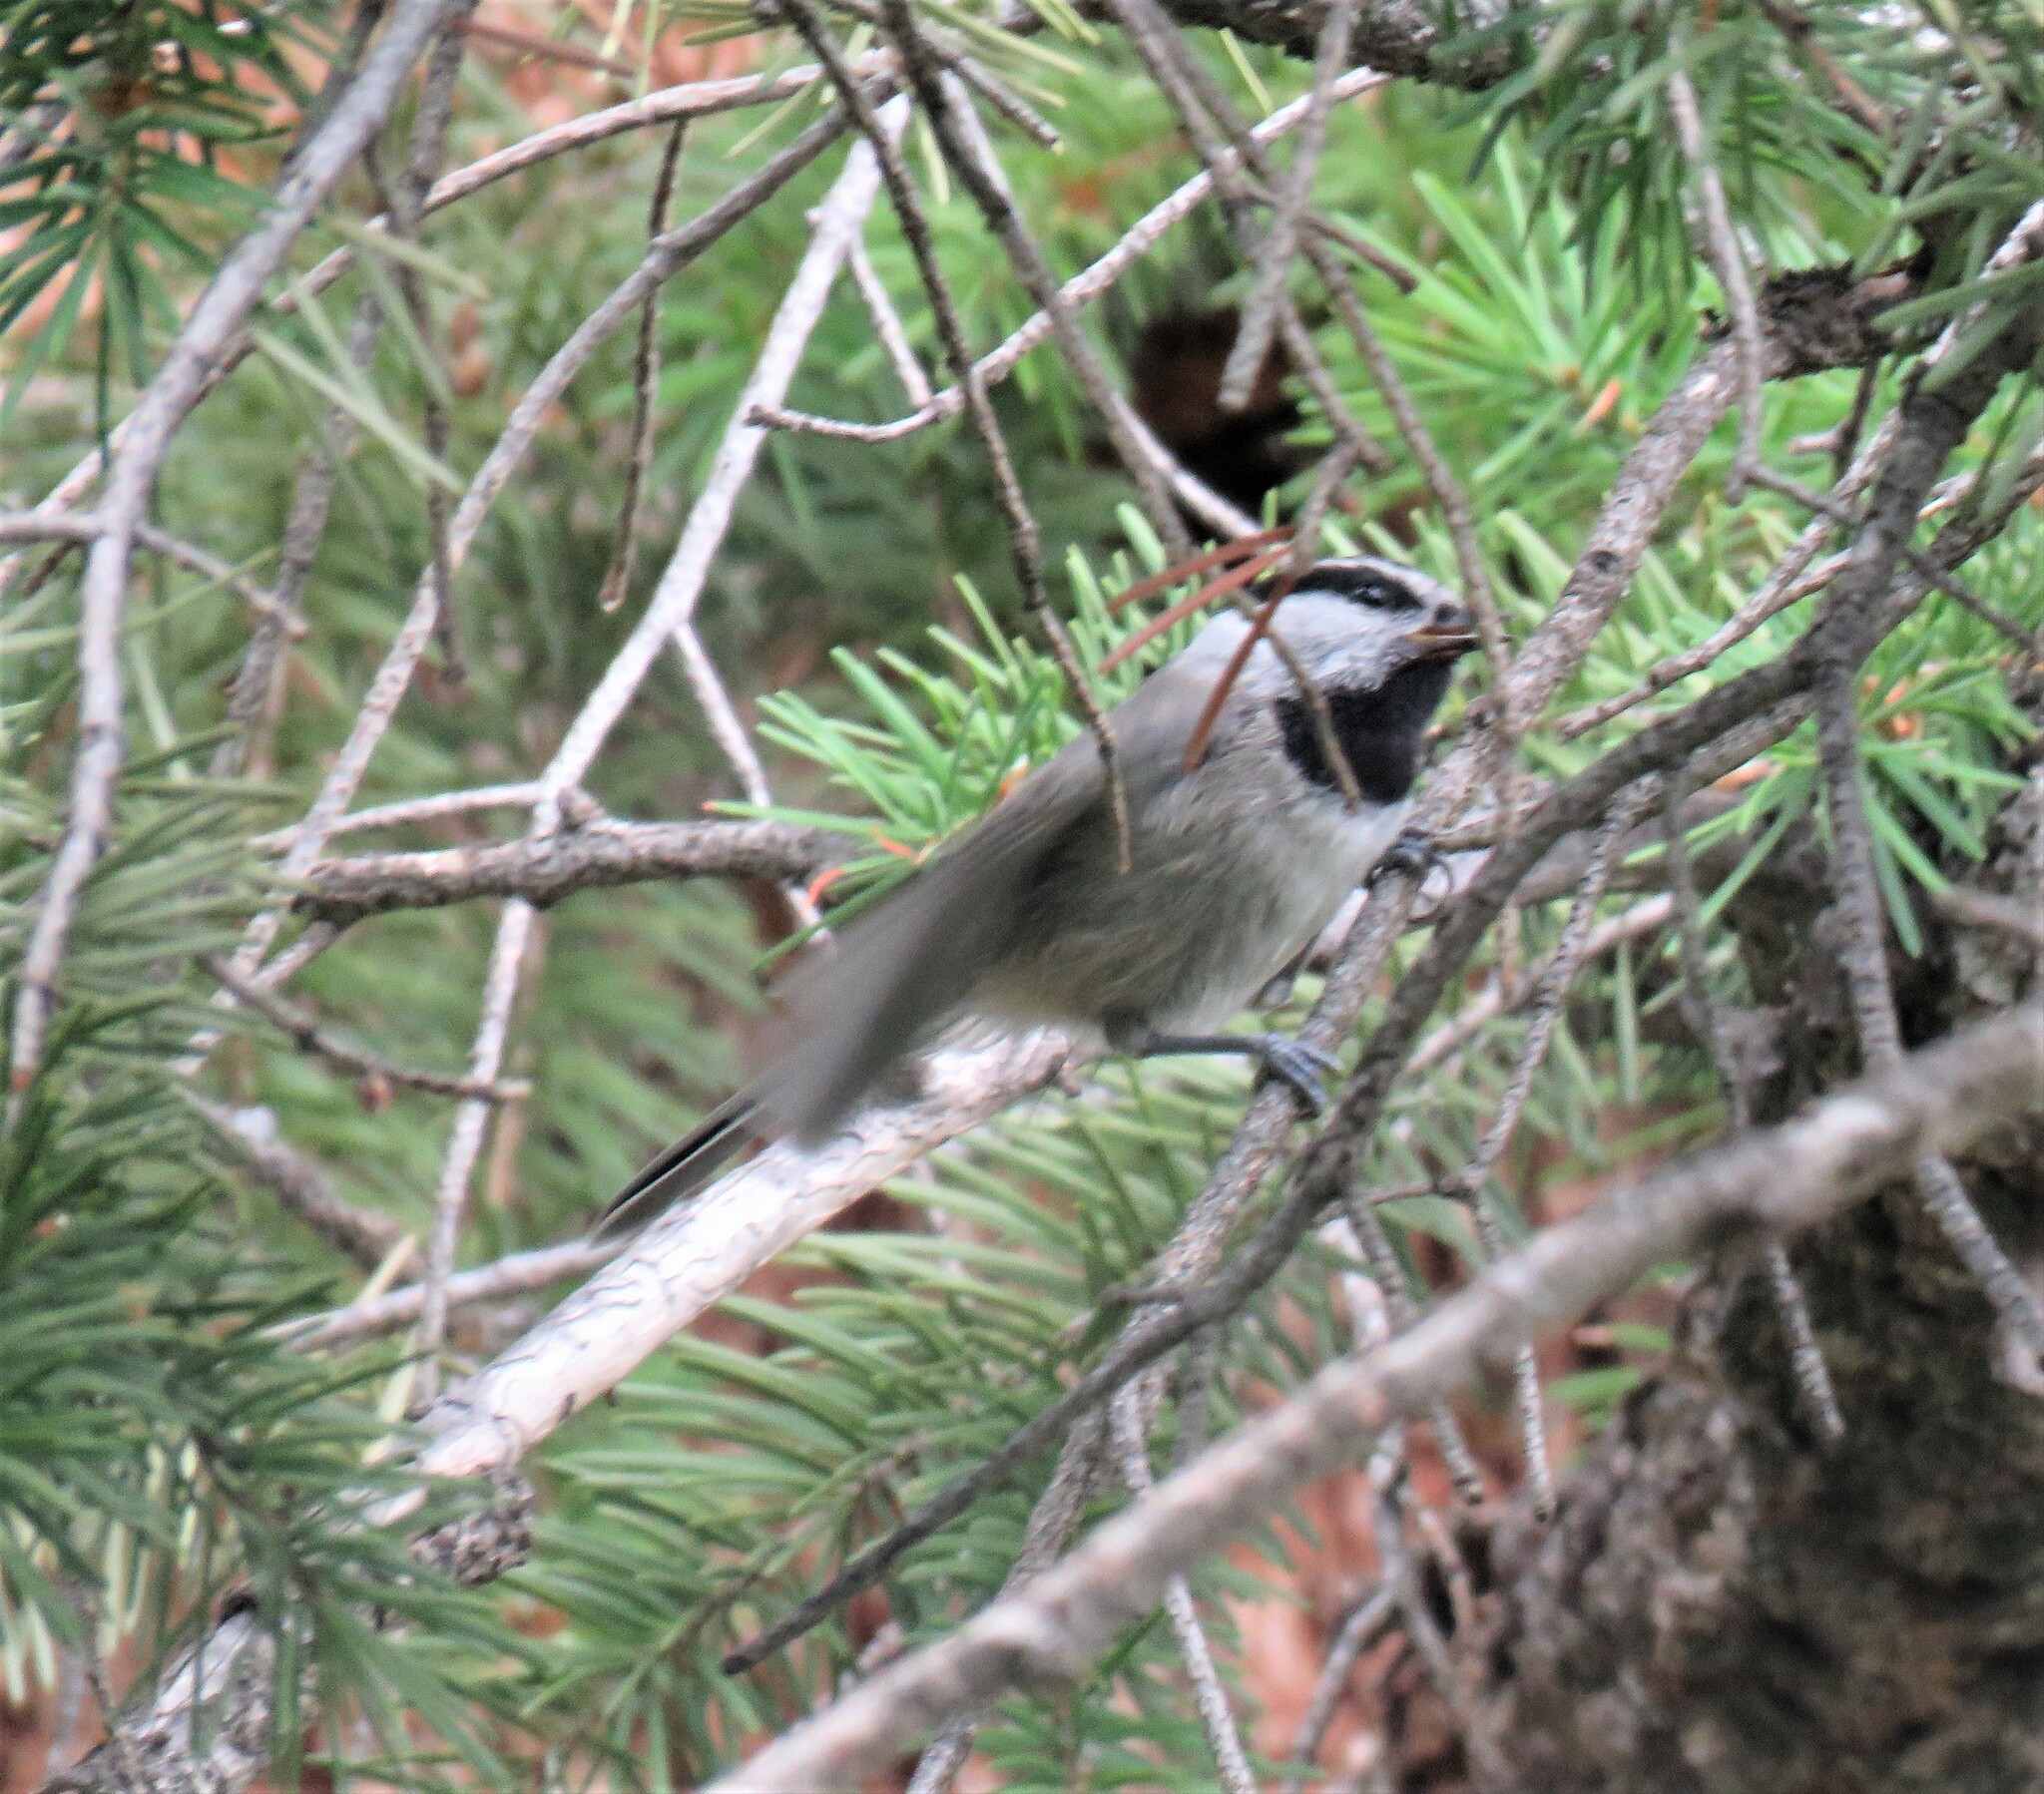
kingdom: Animalia
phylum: Chordata
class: Aves
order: Passeriformes
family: Paridae
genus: Poecile
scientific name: Poecile gambeli
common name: Mountain chickadee
